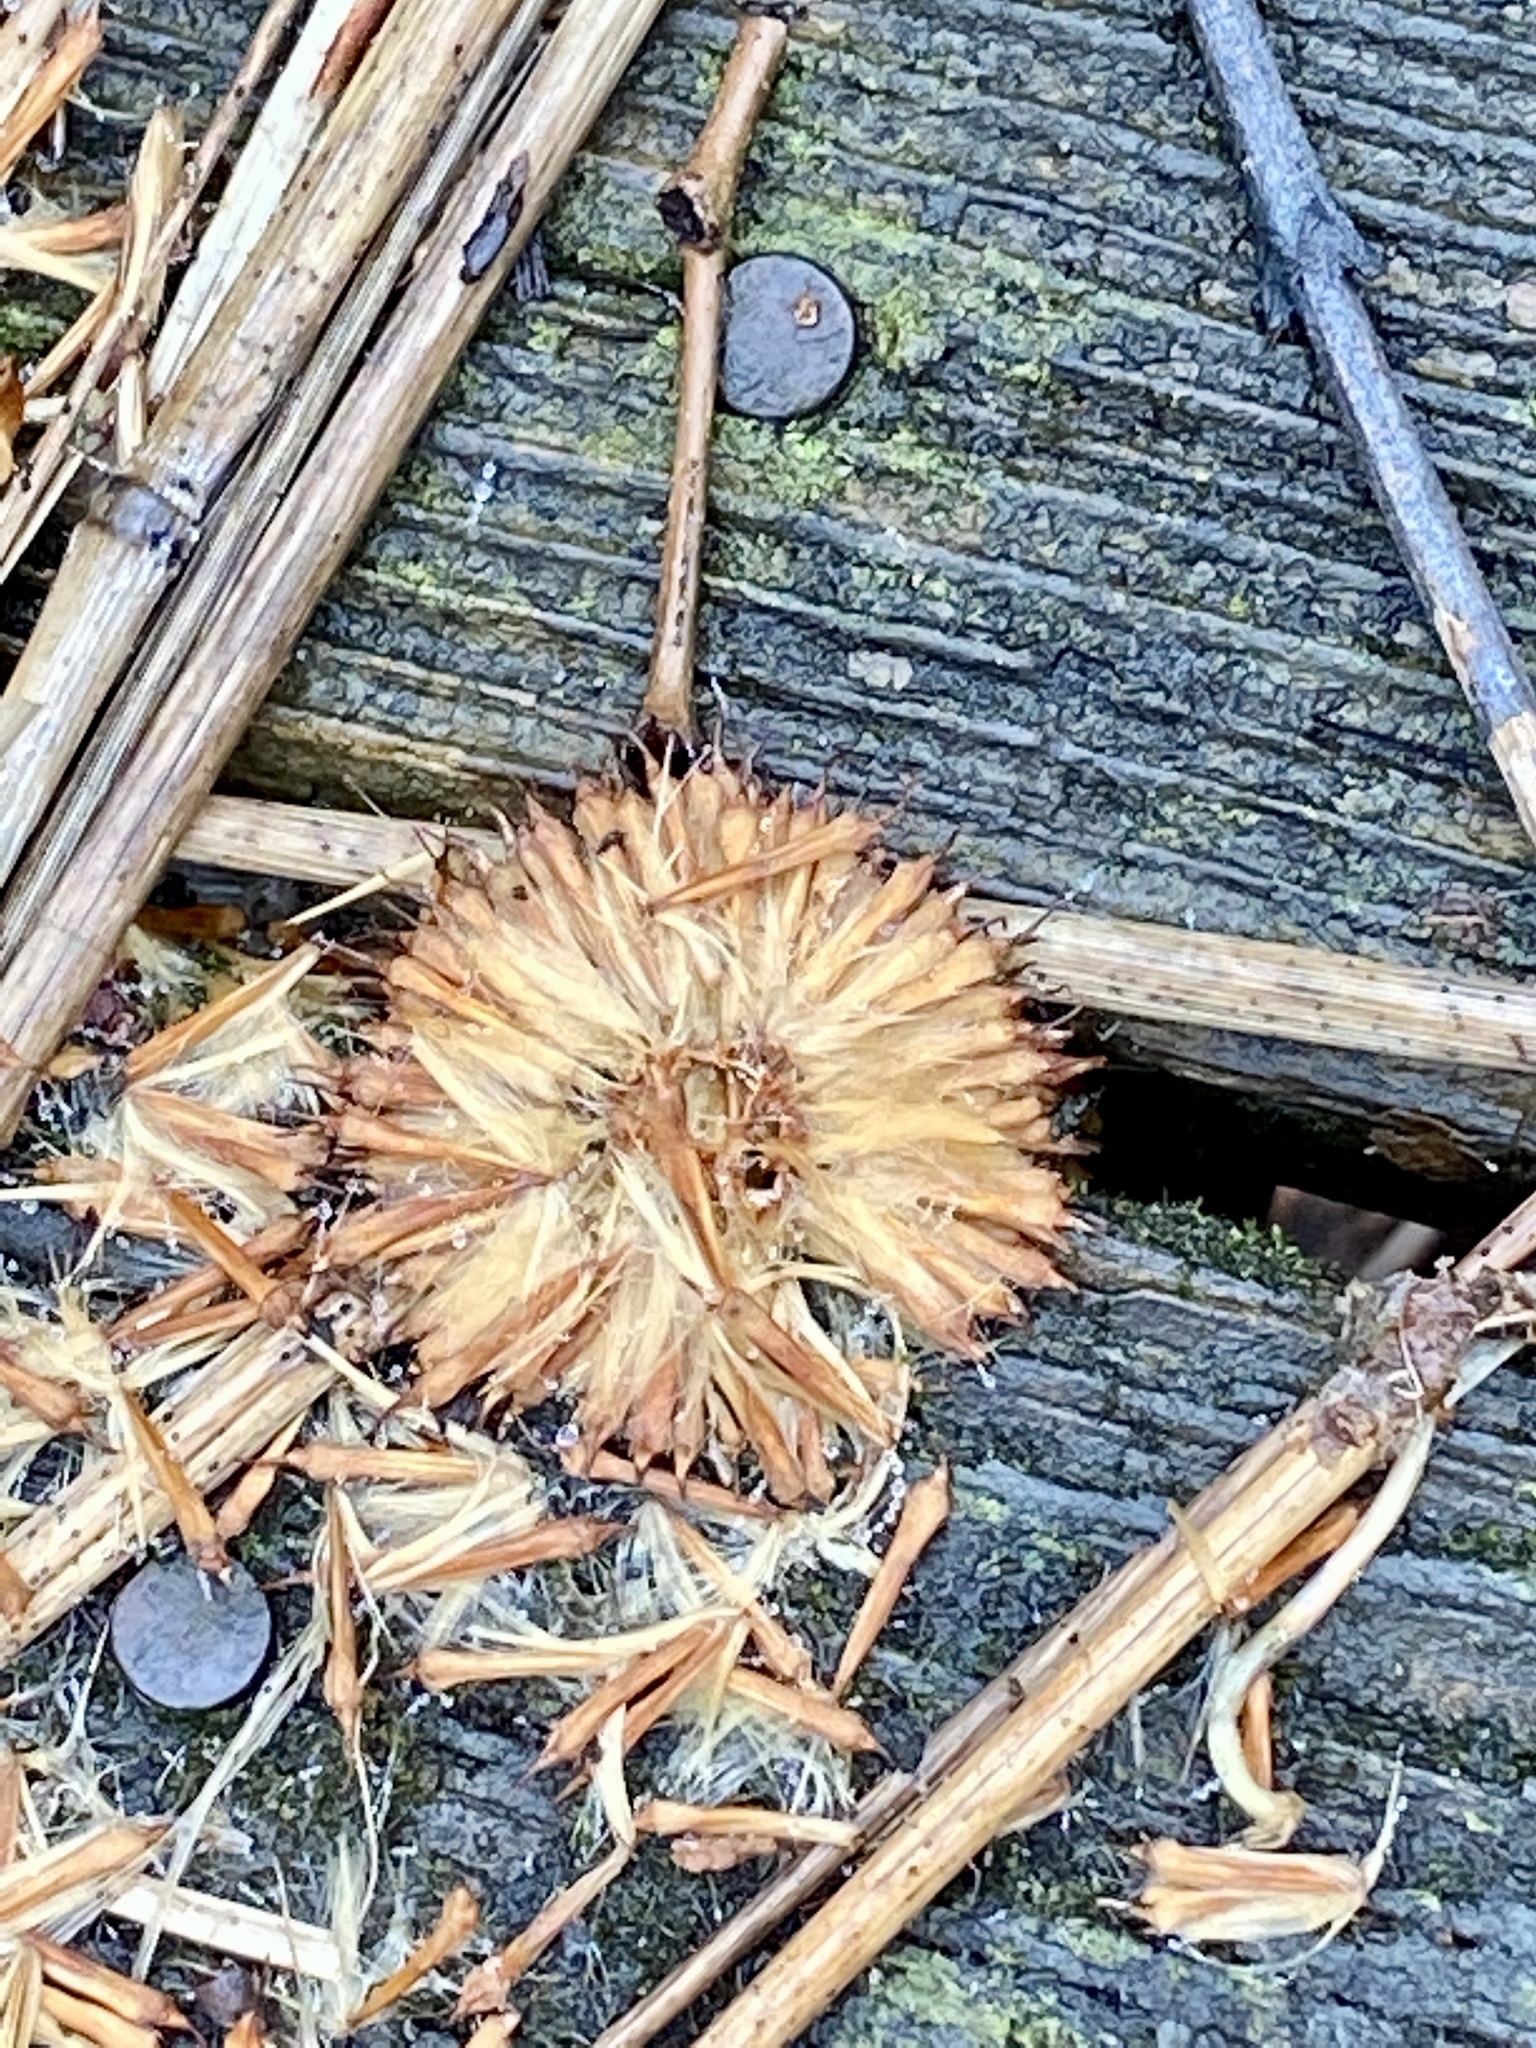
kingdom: Plantae
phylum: Tracheophyta
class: Magnoliopsida
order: Proteales
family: Platanaceae
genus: Platanus
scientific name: Platanus occidentalis
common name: American sycamore
